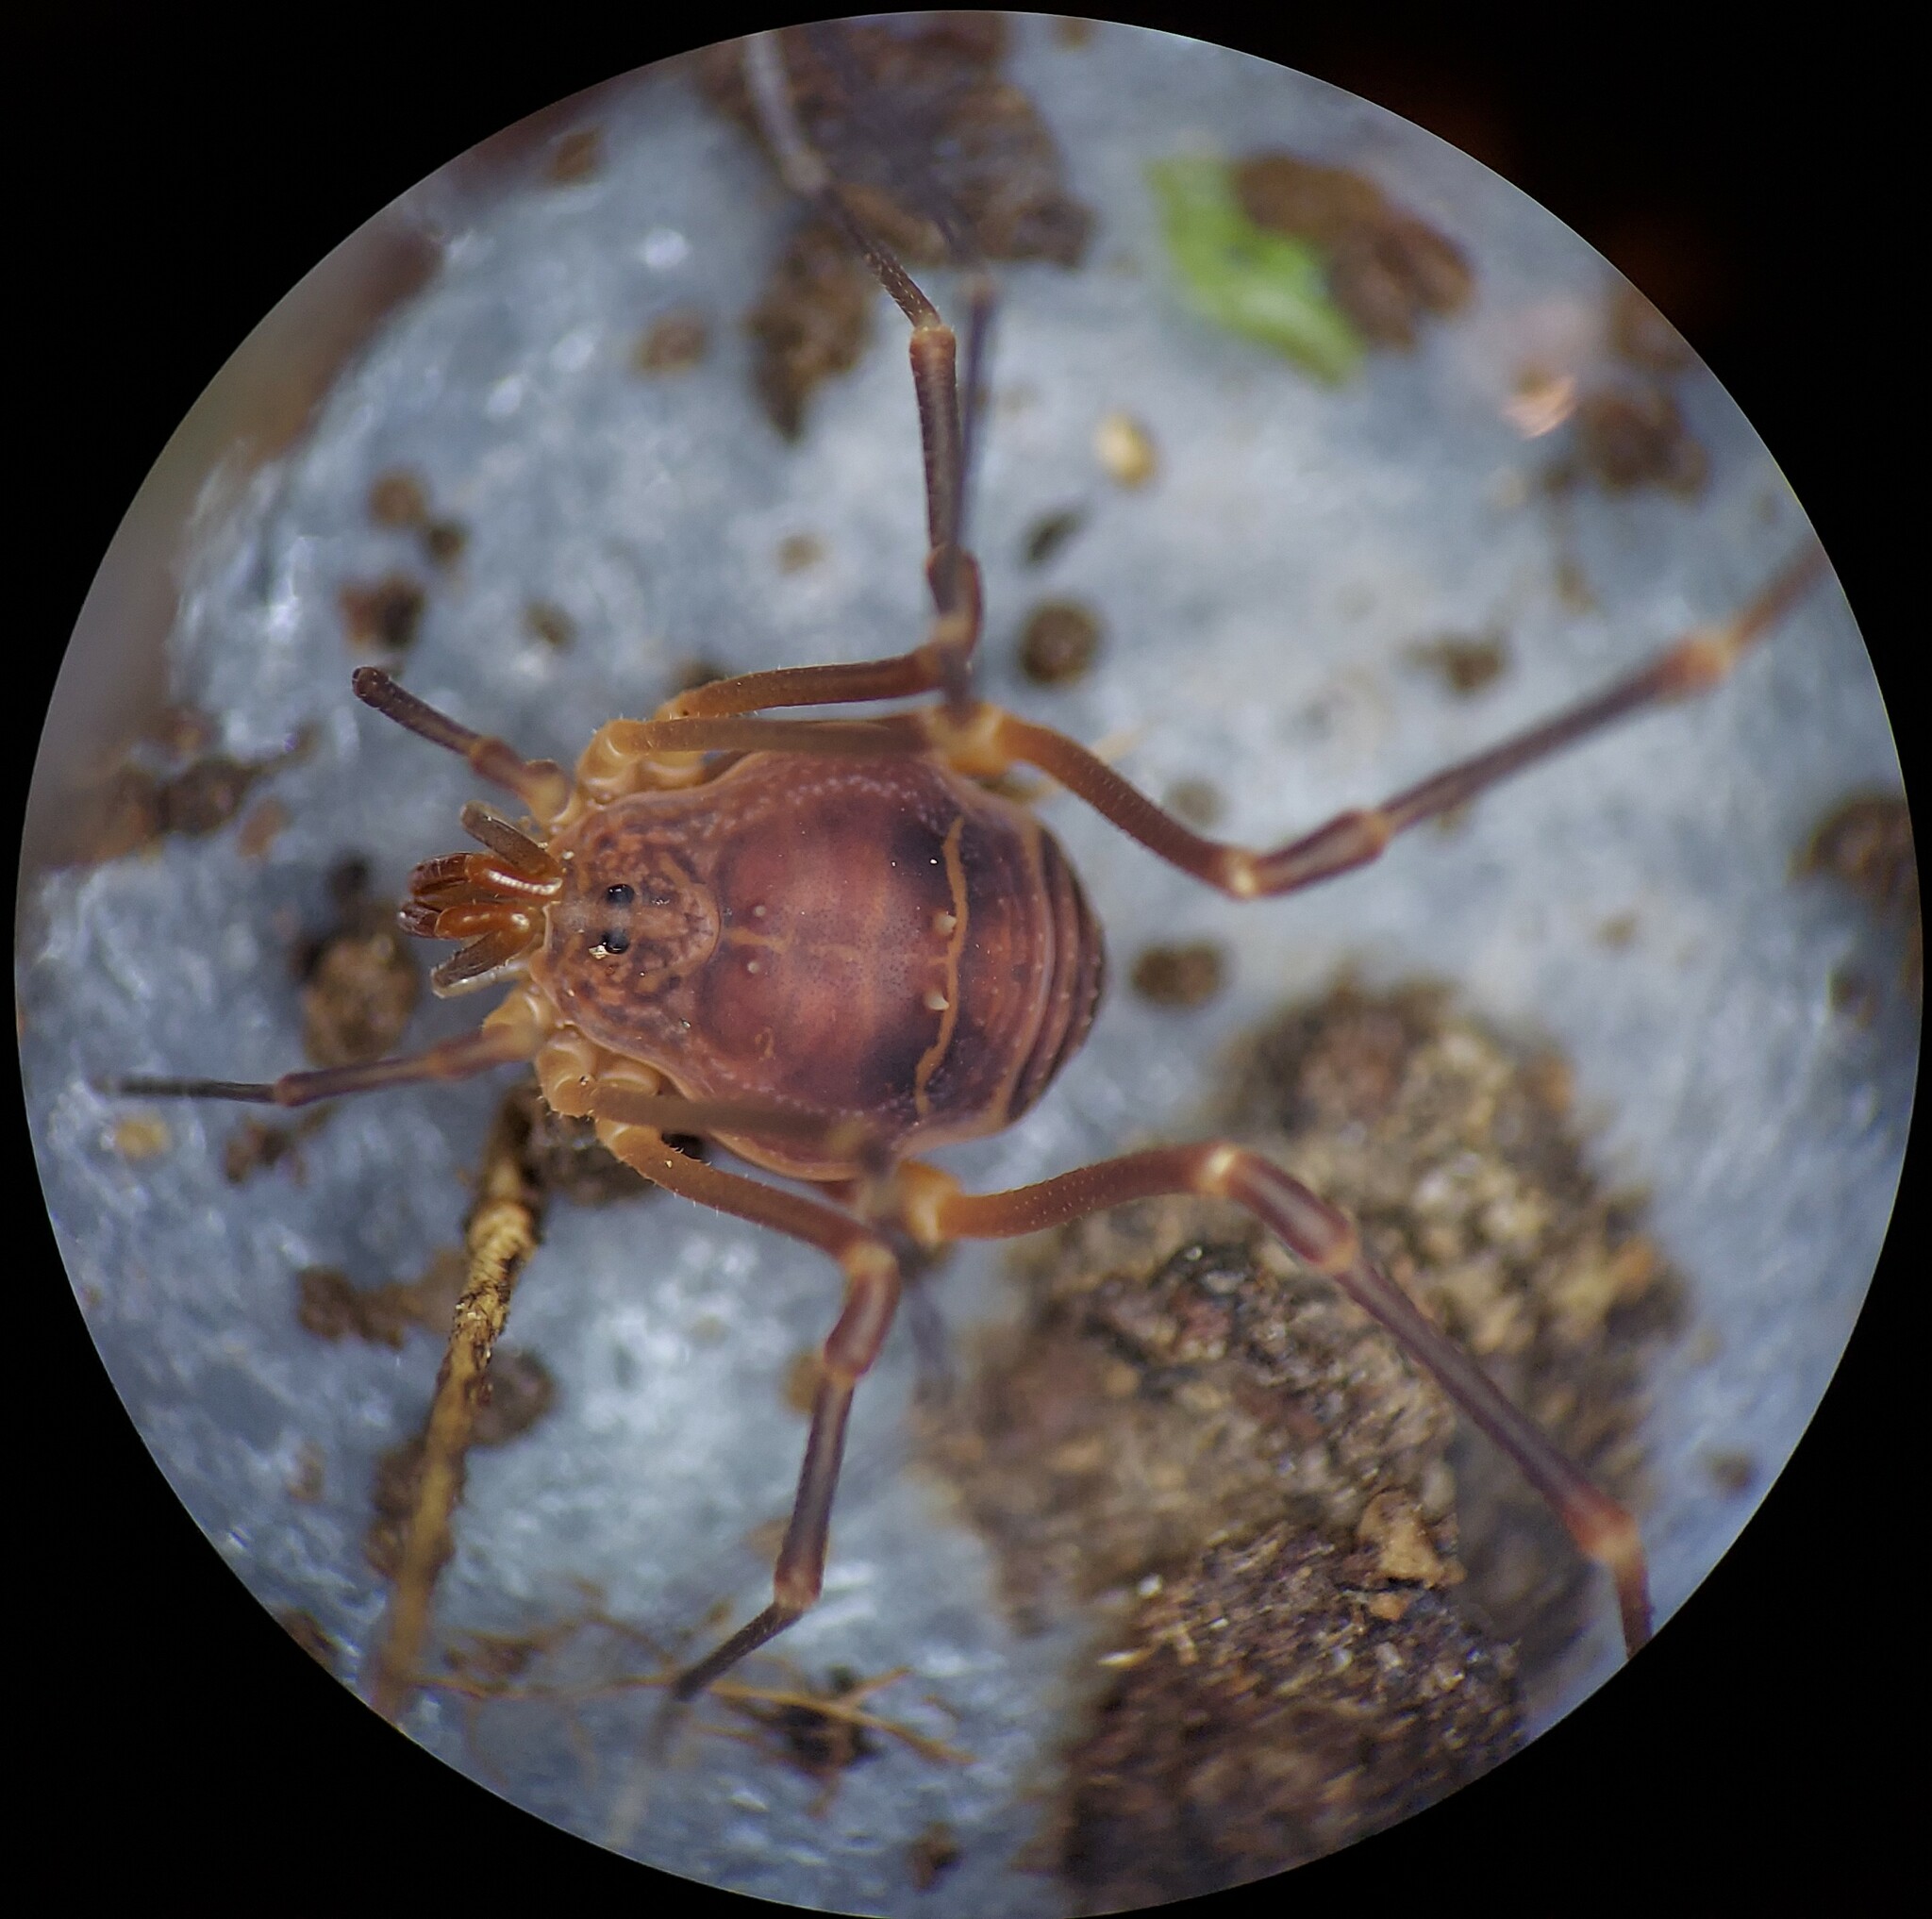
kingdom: Animalia
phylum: Arthropoda
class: Arachnida
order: Opiliones
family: Cosmetidae
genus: Libitioides
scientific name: Libitioides sayi
